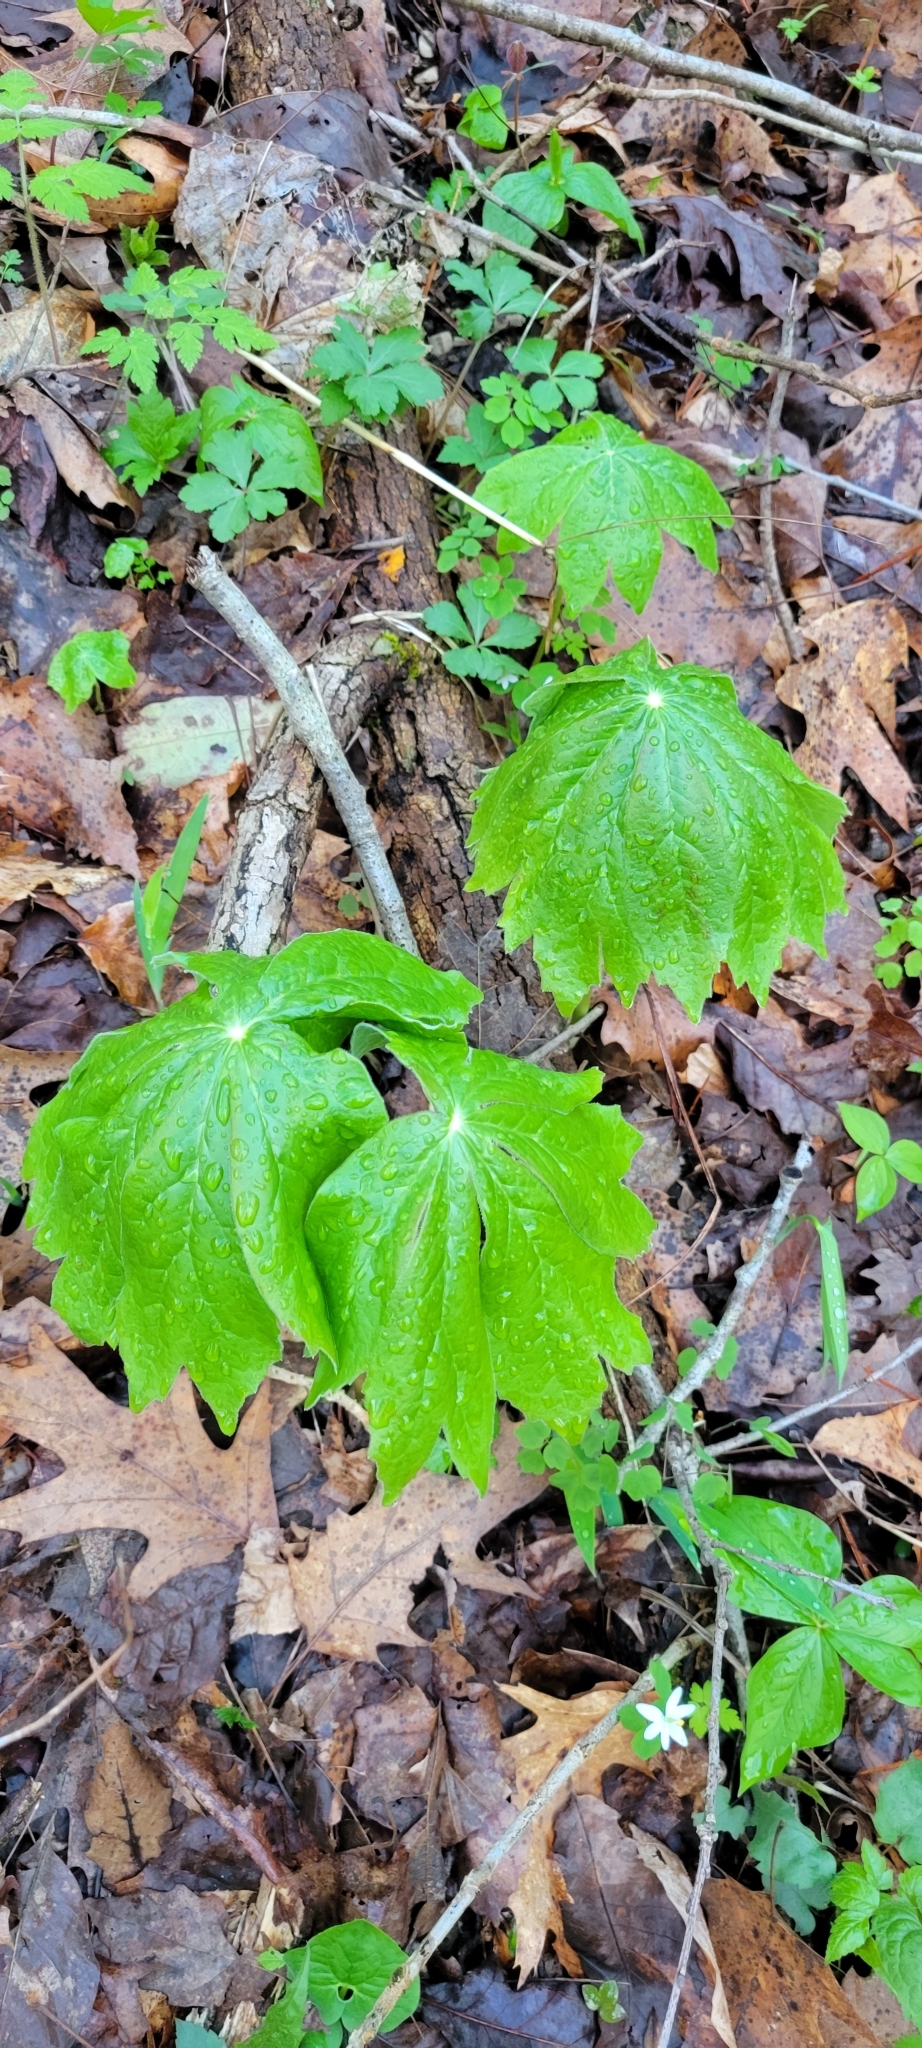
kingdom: Plantae
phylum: Tracheophyta
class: Magnoliopsida
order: Ranunculales
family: Berberidaceae
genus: Podophyllum
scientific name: Podophyllum peltatum
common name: Wild mandrake
